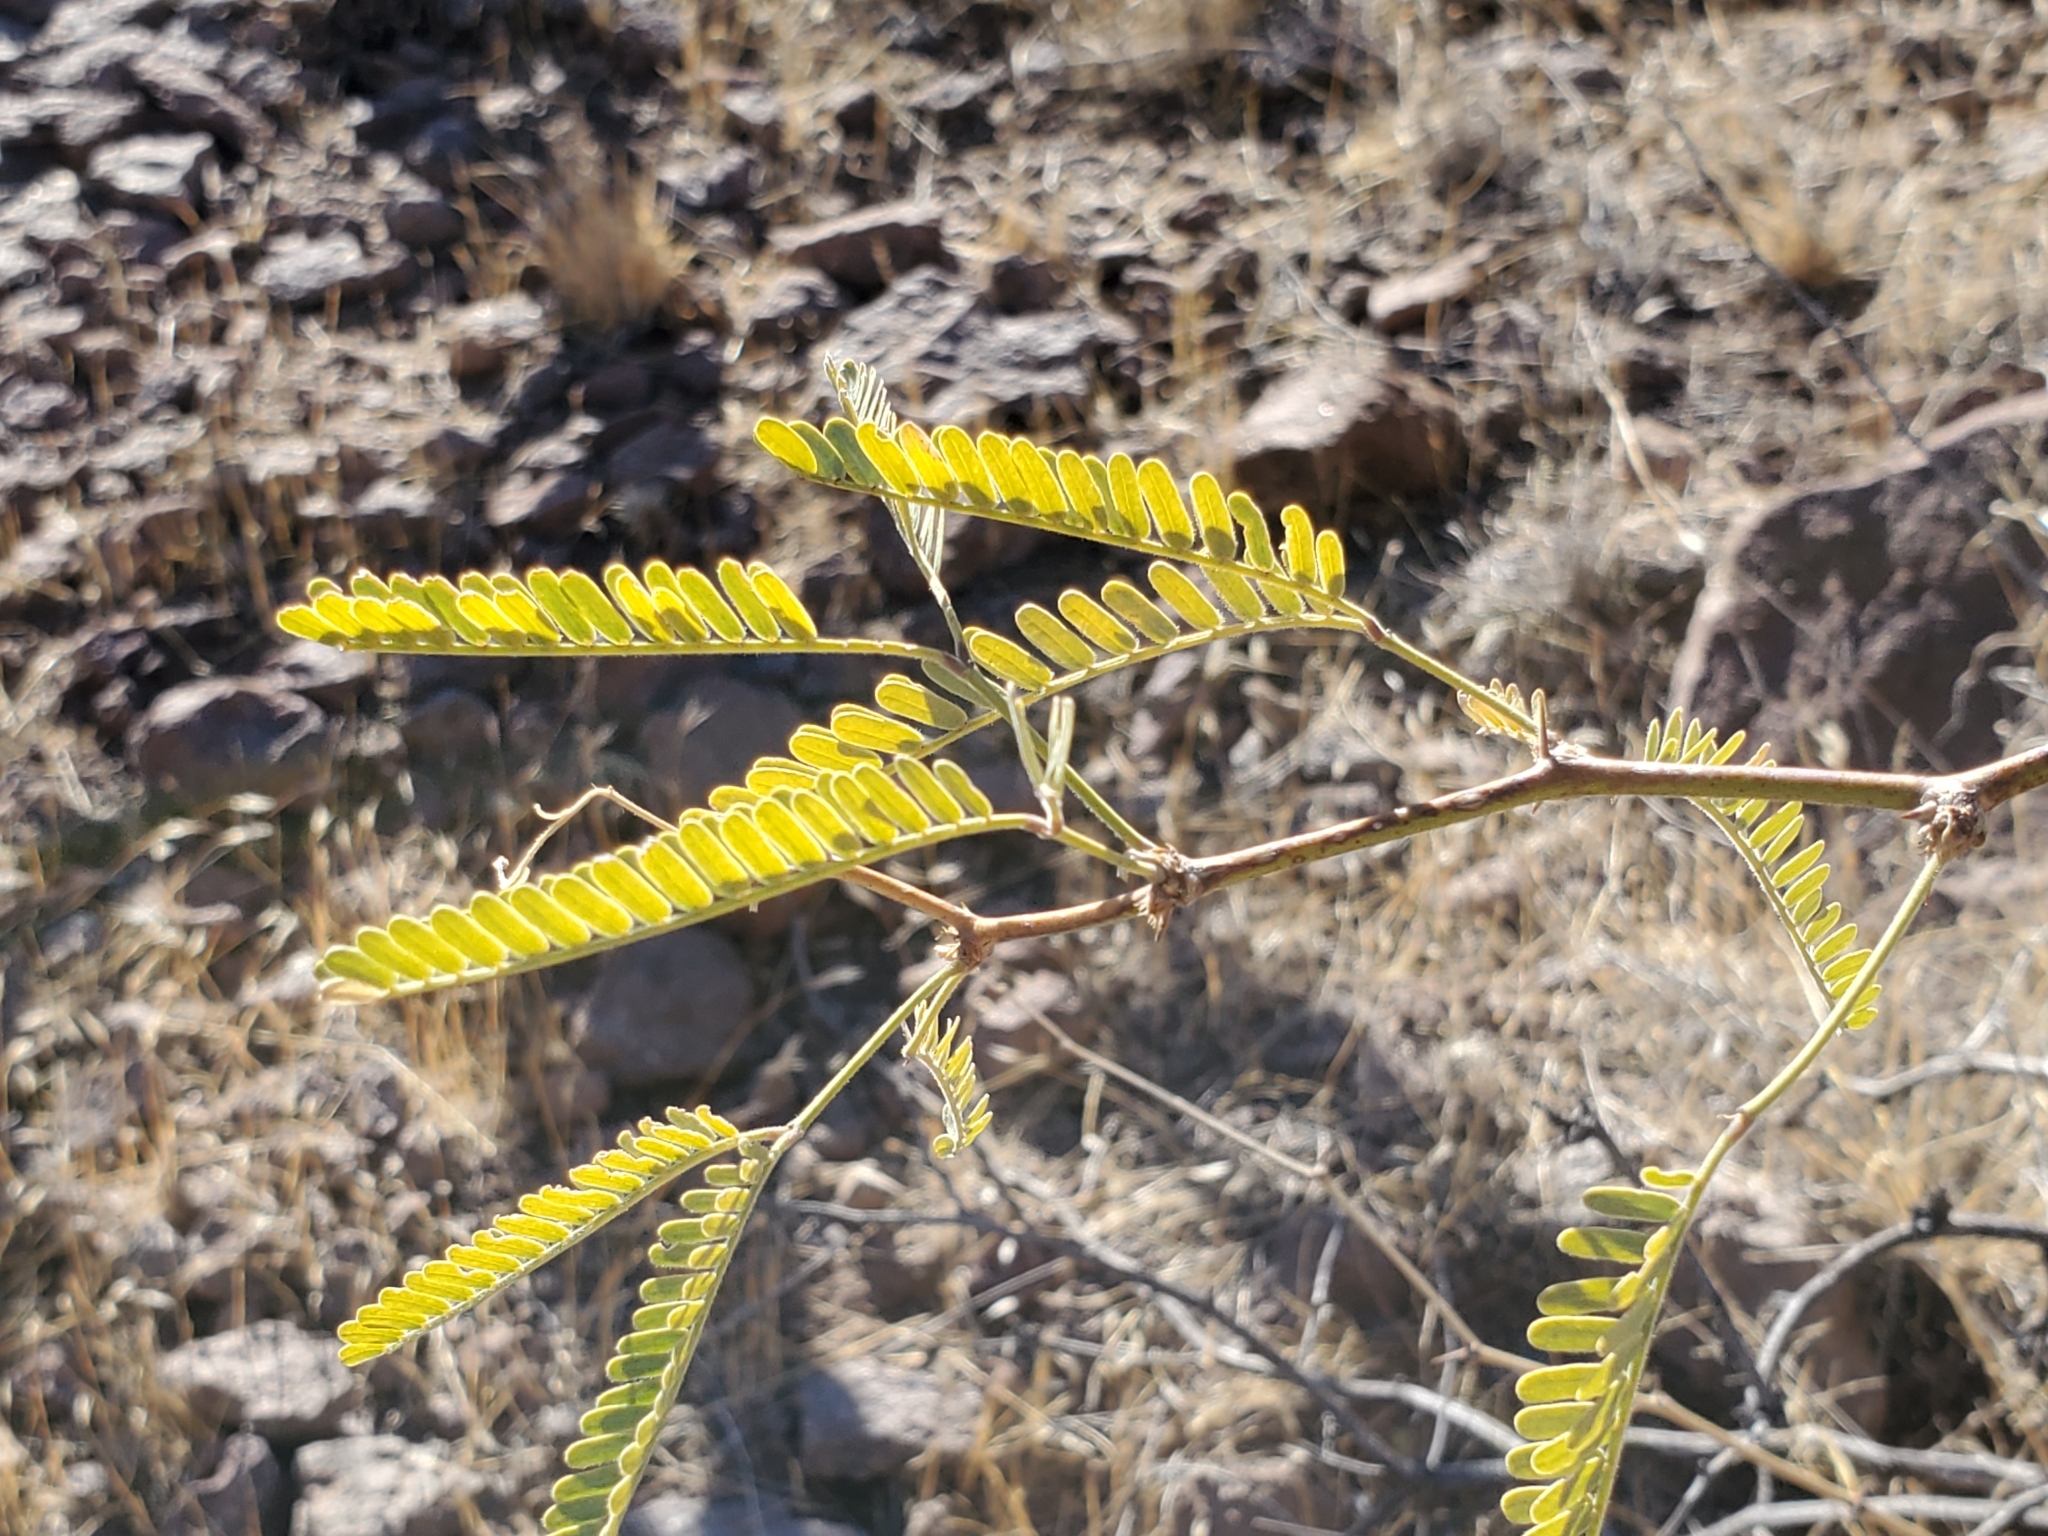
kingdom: Plantae
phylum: Tracheophyta
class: Magnoliopsida
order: Fabales
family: Fabaceae
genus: Prosopis
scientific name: Prosopis velutina
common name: Velvet mesquite
